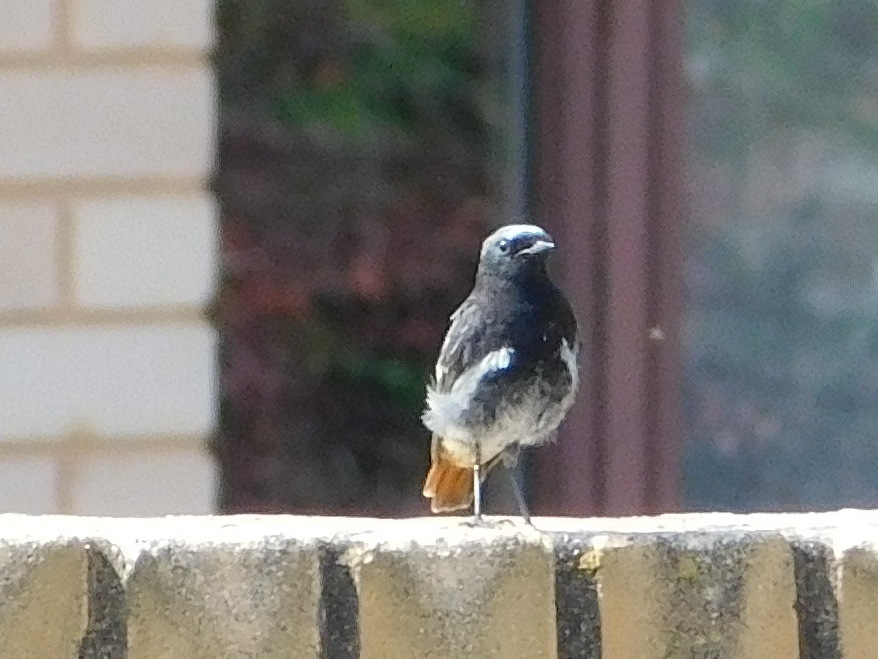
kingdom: Animalia
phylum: Chordata
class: Aves
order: Passeriformes
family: Muscicapidae
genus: Phoenicurus
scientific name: Phoenicurus ochruros
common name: Black redstart
